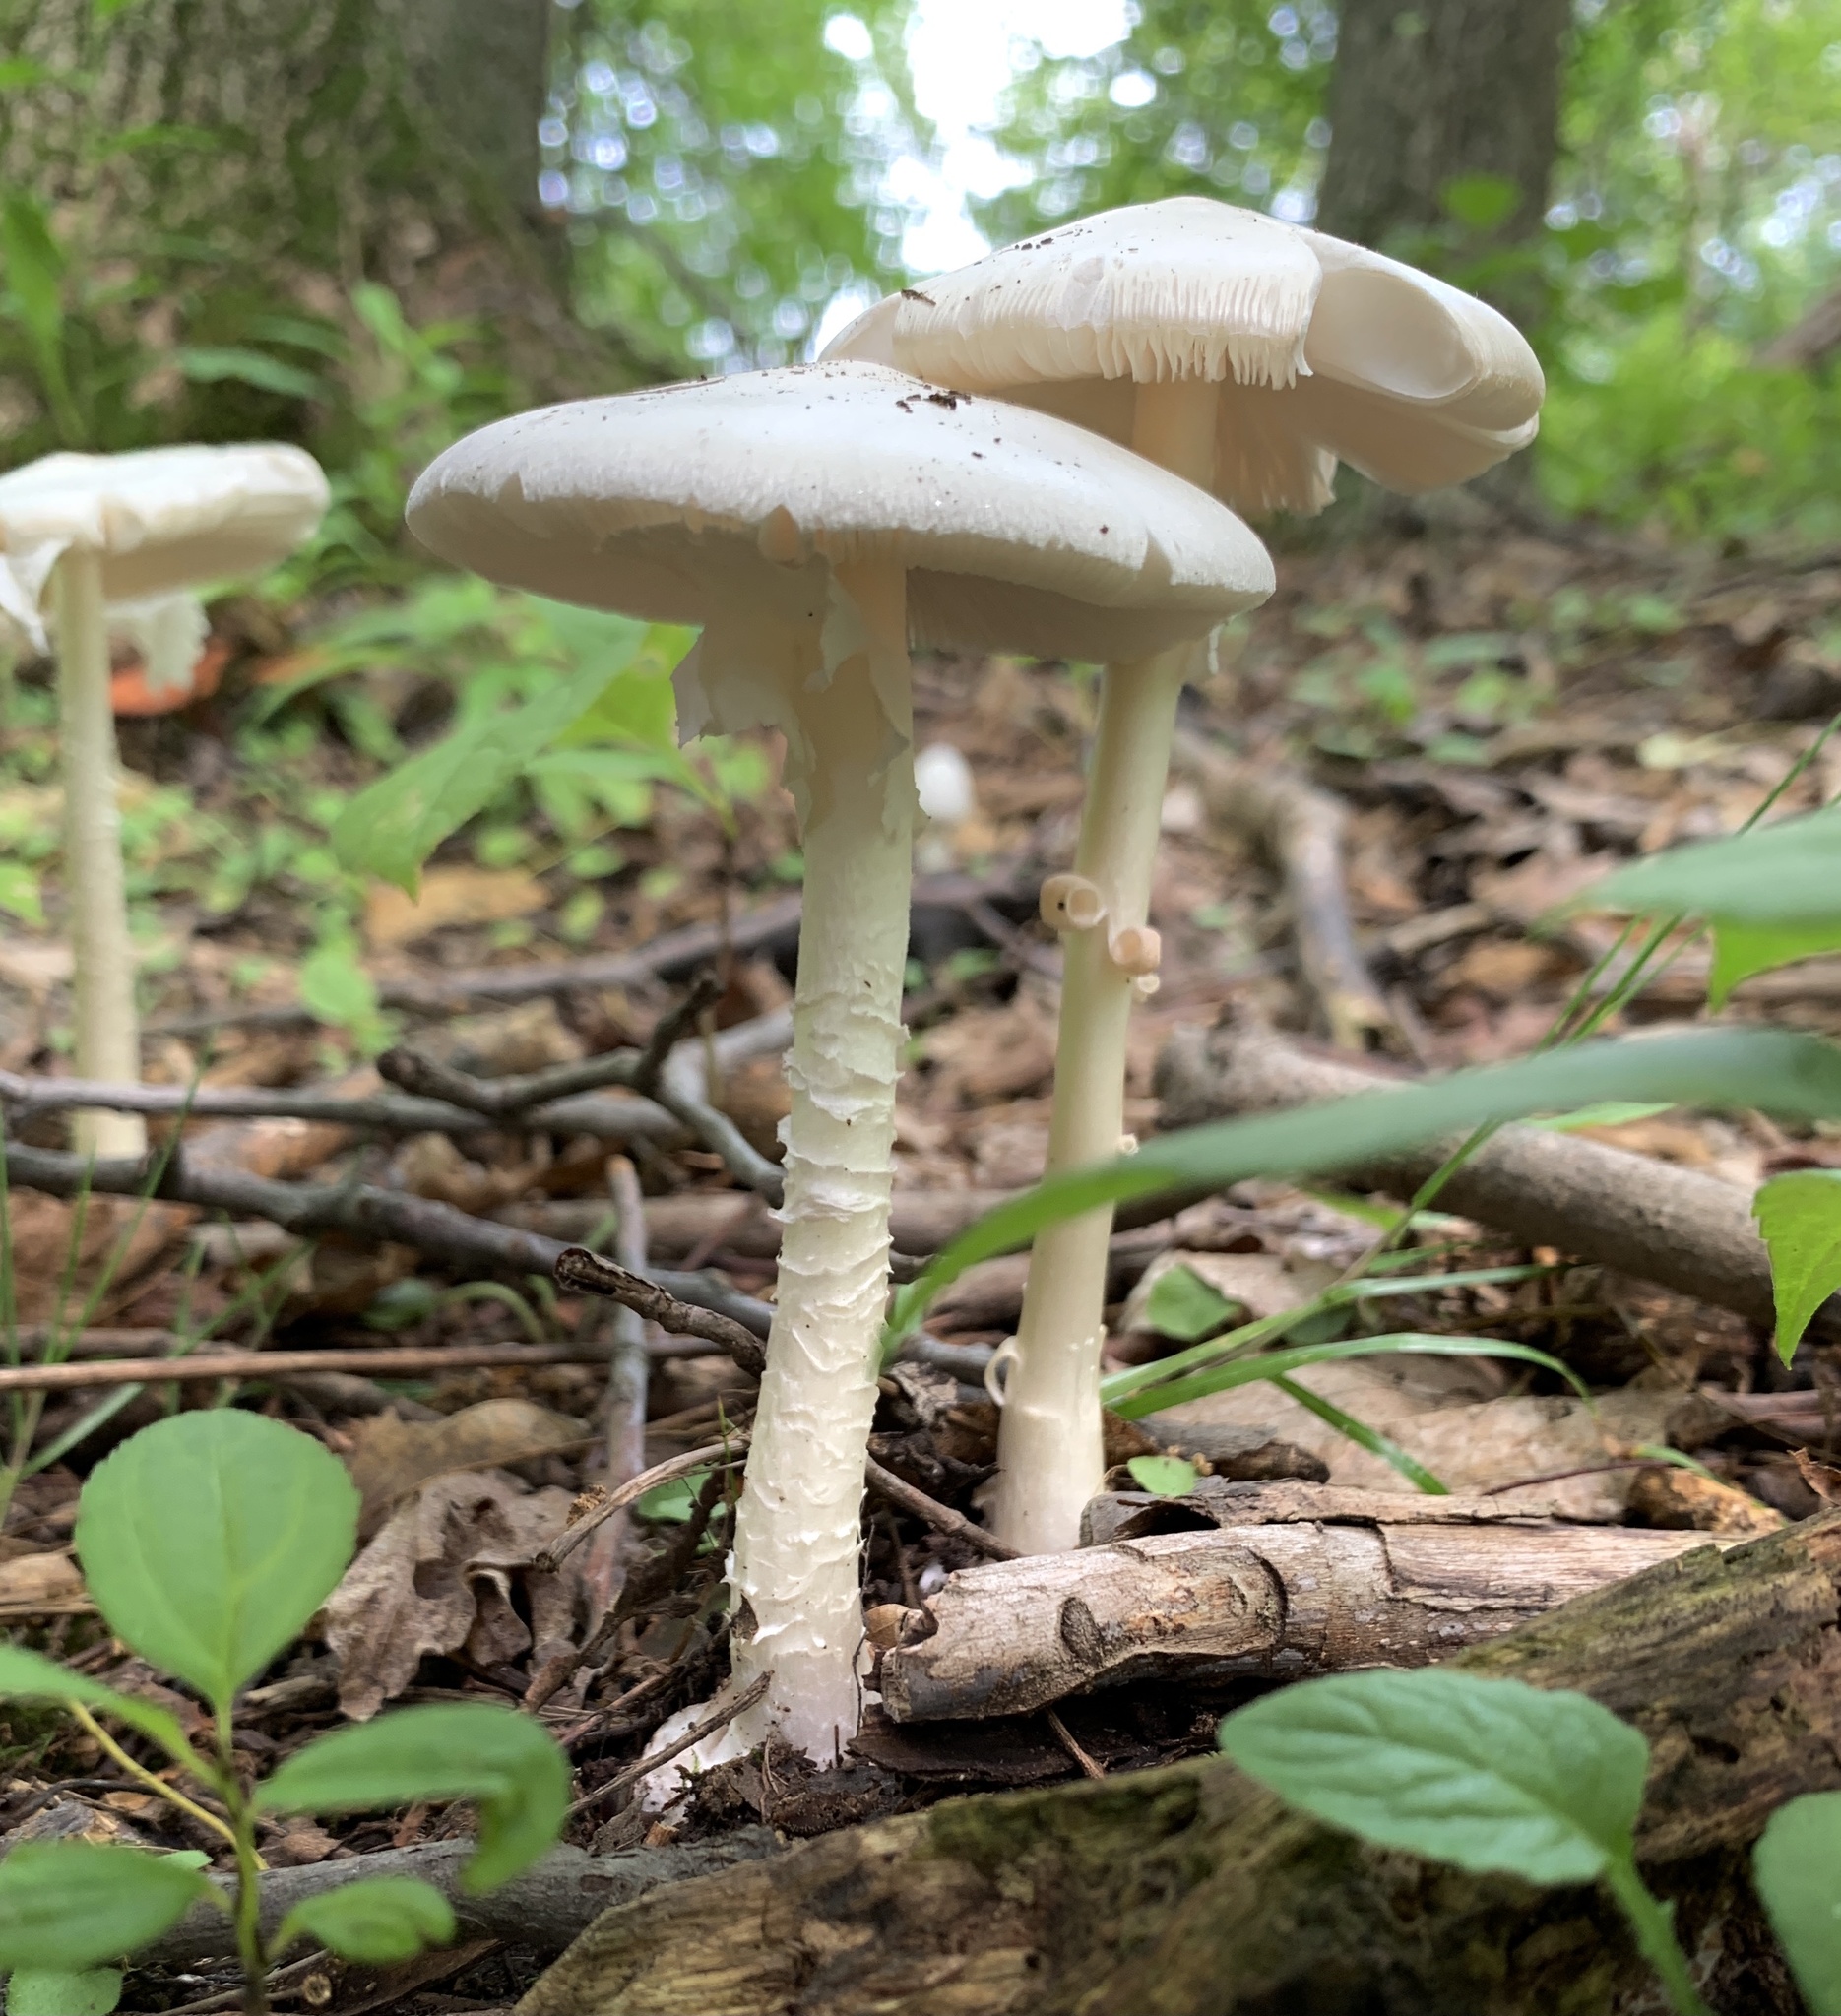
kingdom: Fungi
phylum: Basidiomycota
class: Agaricomycetes
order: Agaricales
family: Amanitaceae
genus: Amanita
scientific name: Amanita bisporigera
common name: Eastern north american destroying angel
